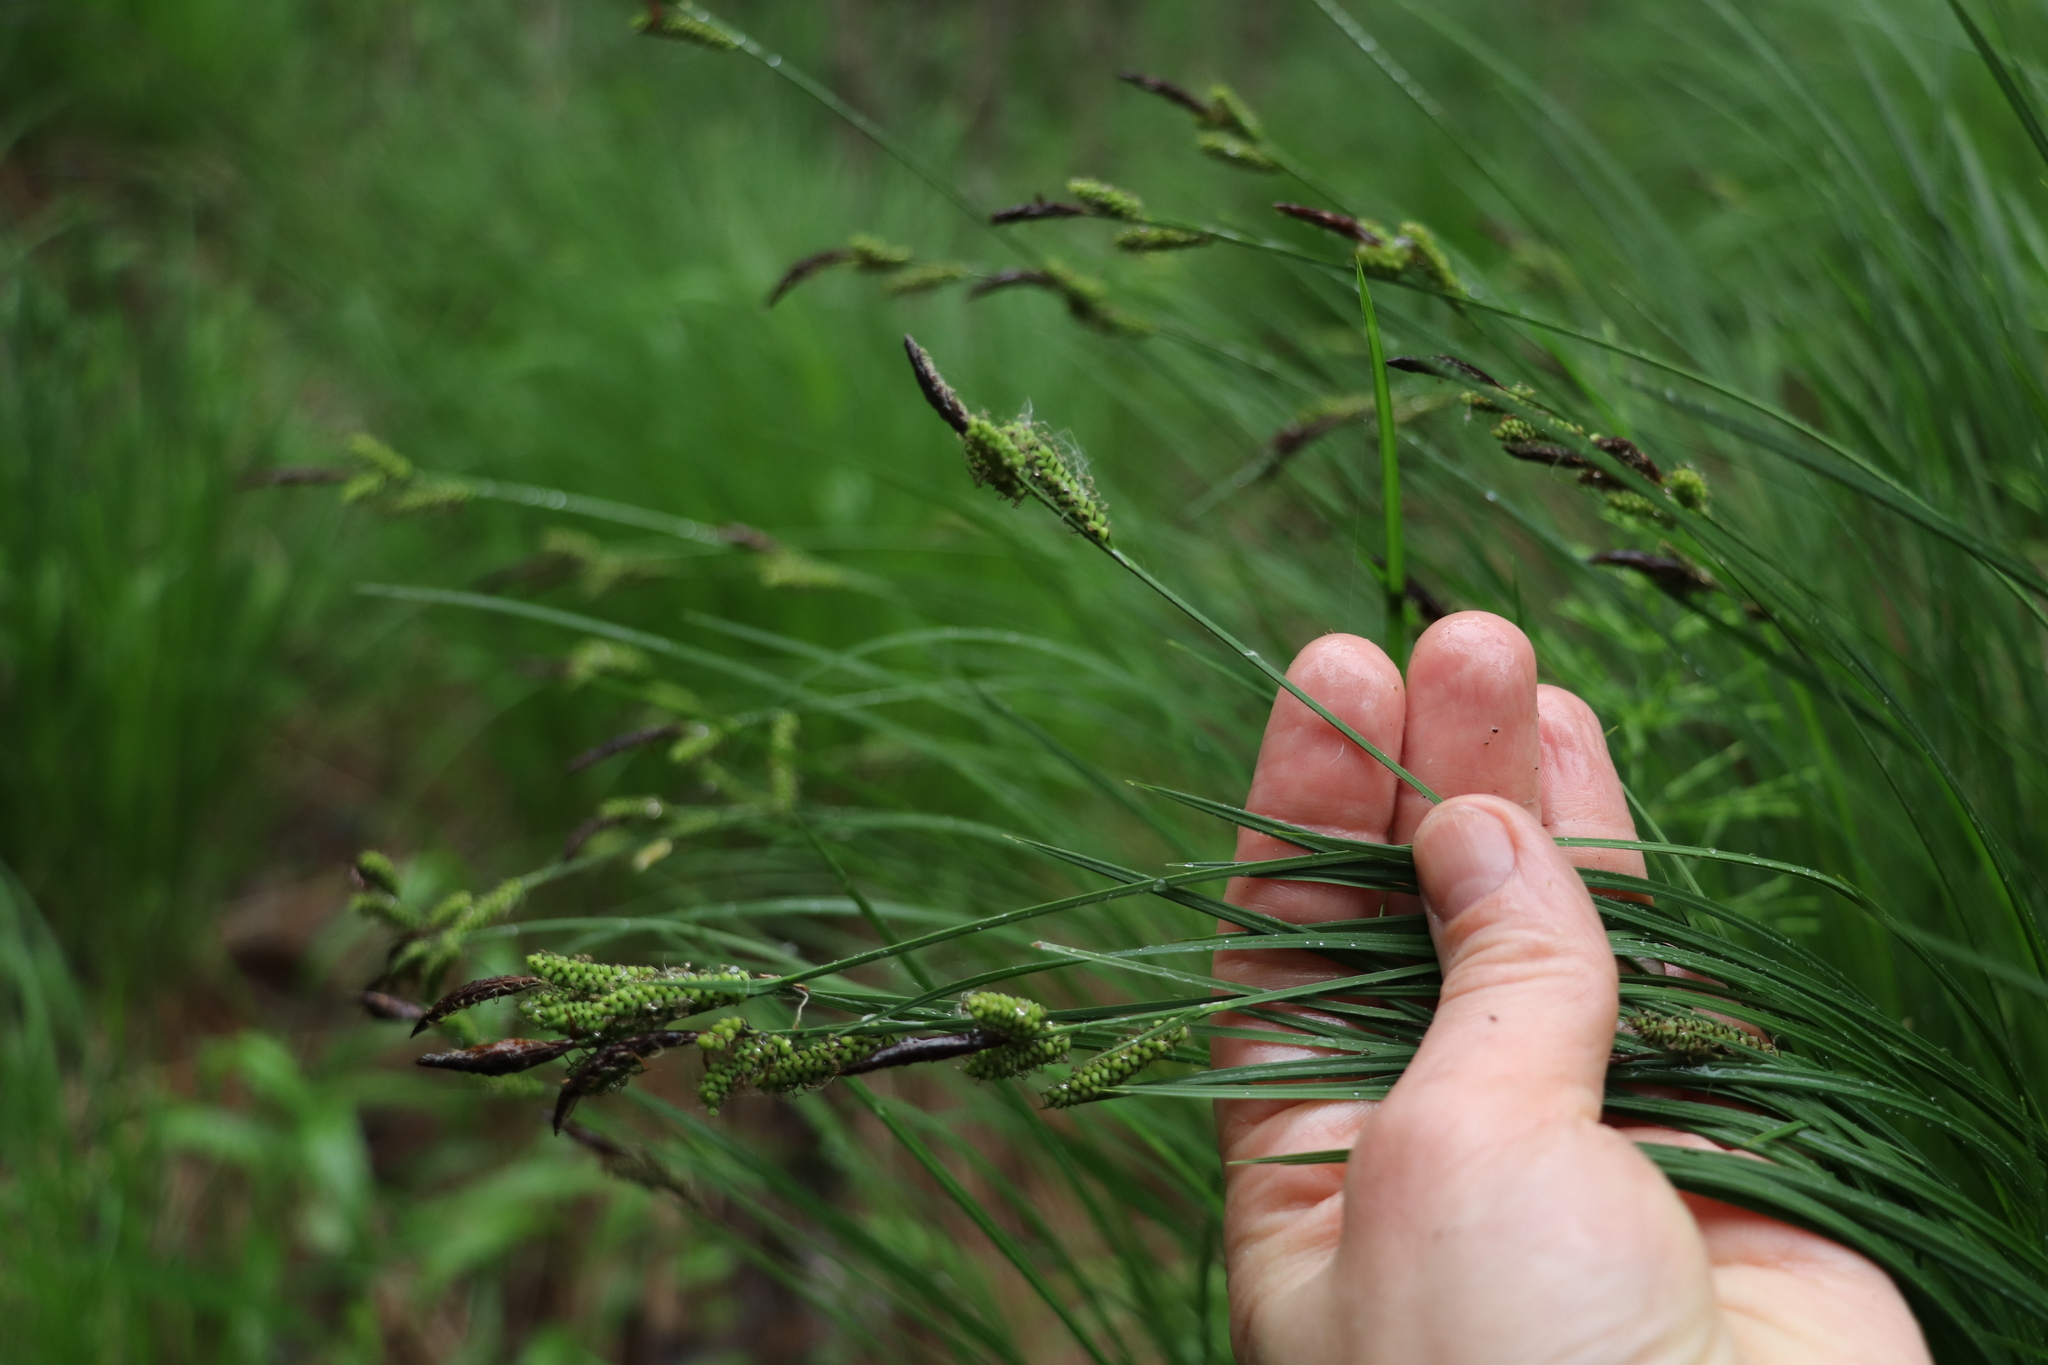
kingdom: Plantae
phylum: Tracheophyta
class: Liliopsida
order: Poales
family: Cyperaceae
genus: Carex
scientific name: Carex cespitosa
